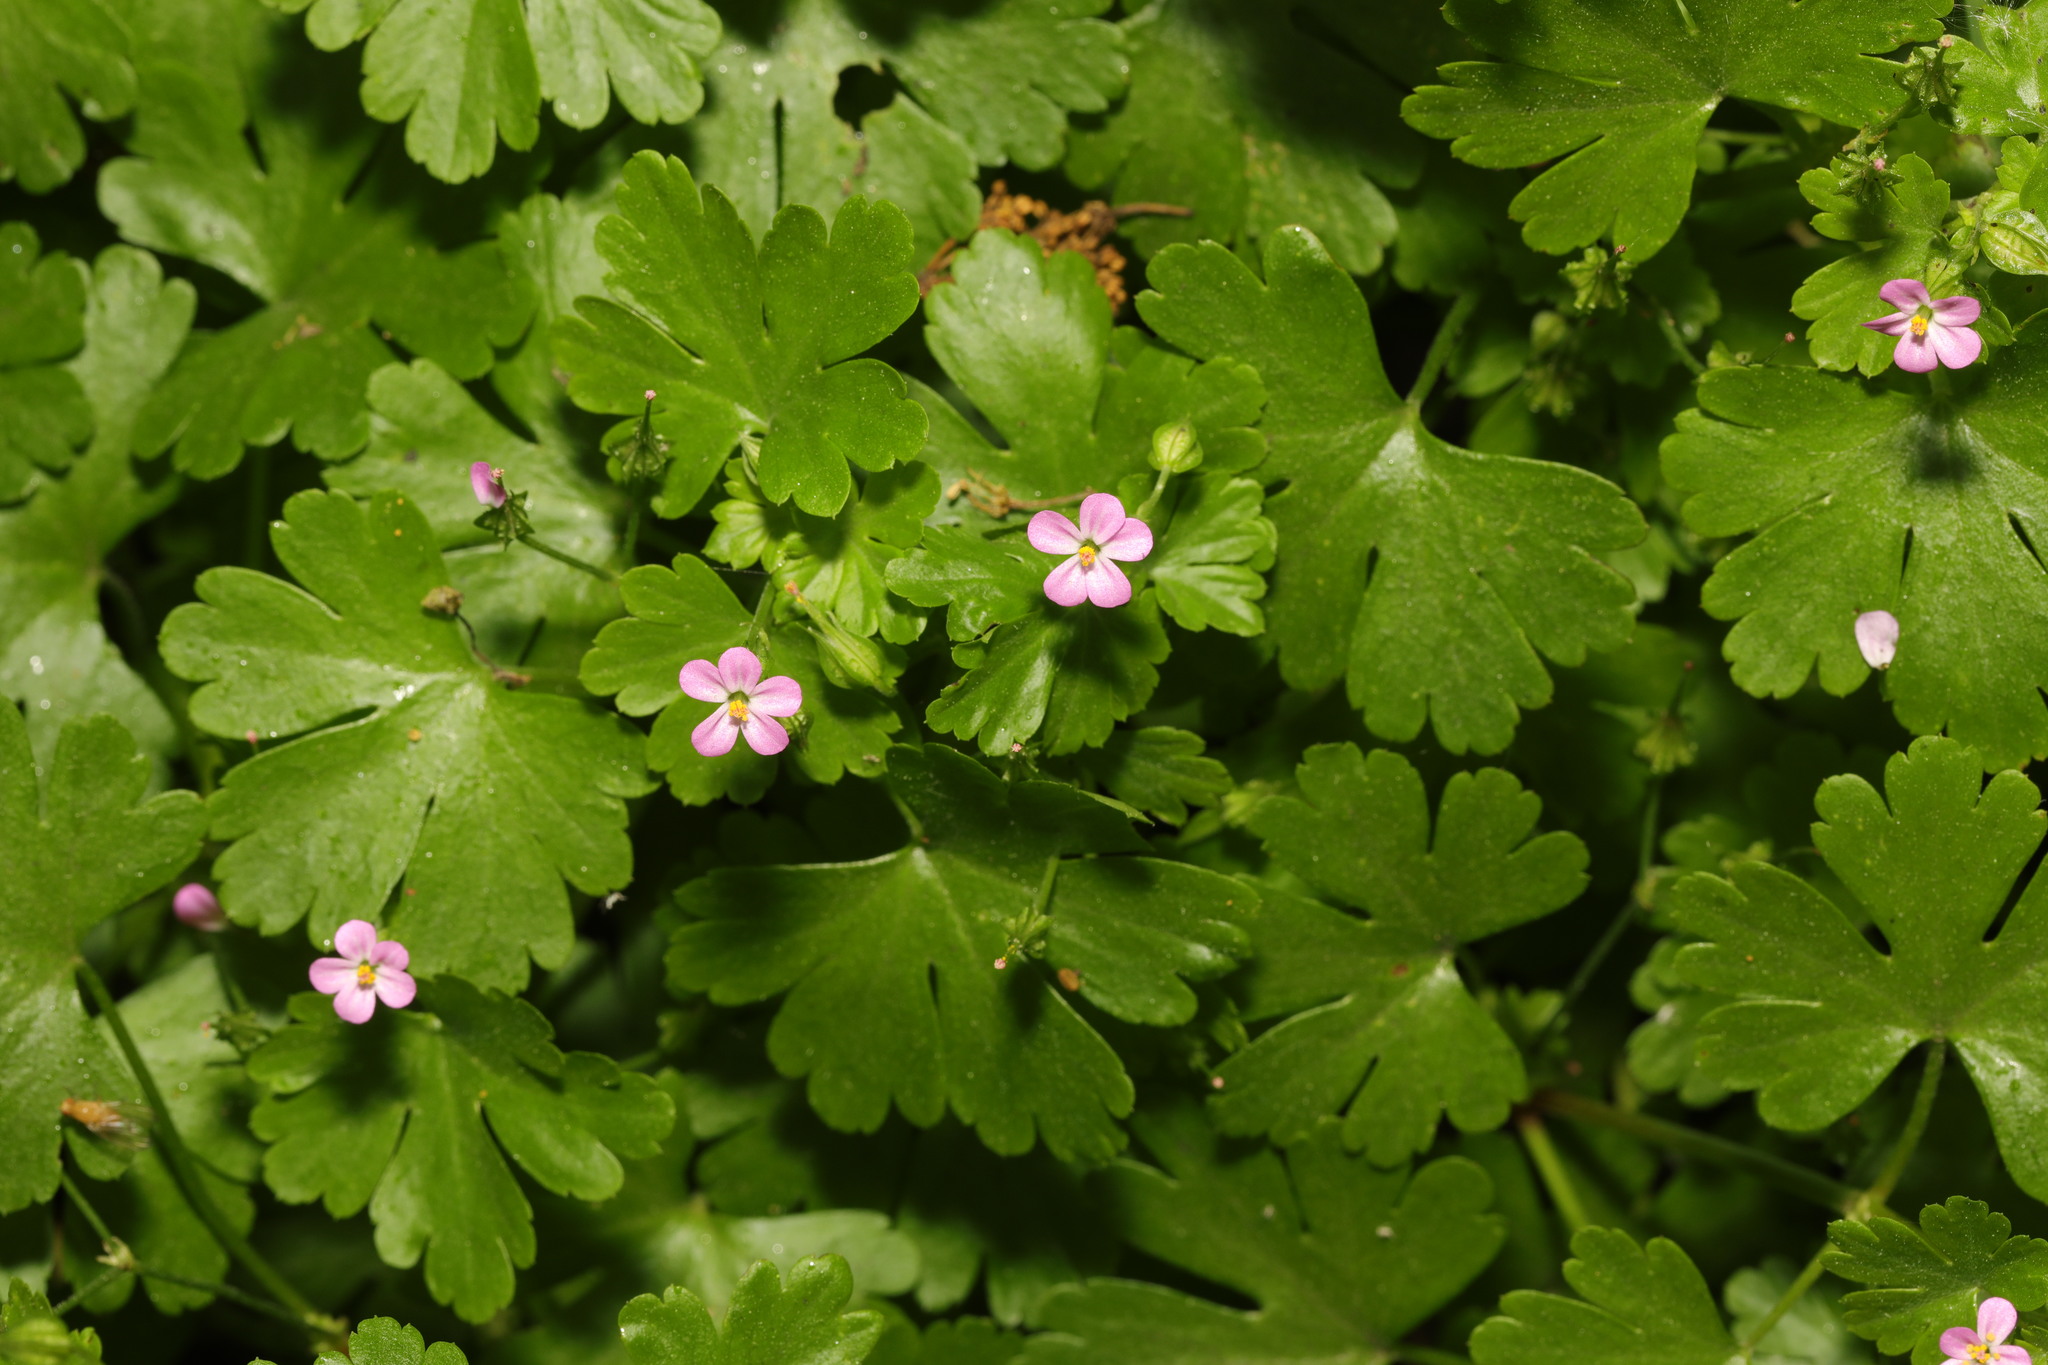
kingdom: Plantae
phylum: Tracheophyta
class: Magnoliopsida
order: Geraniales
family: Geraniaceae
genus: Geranium
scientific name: Geranium lucidum
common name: Shining crane's-bill
